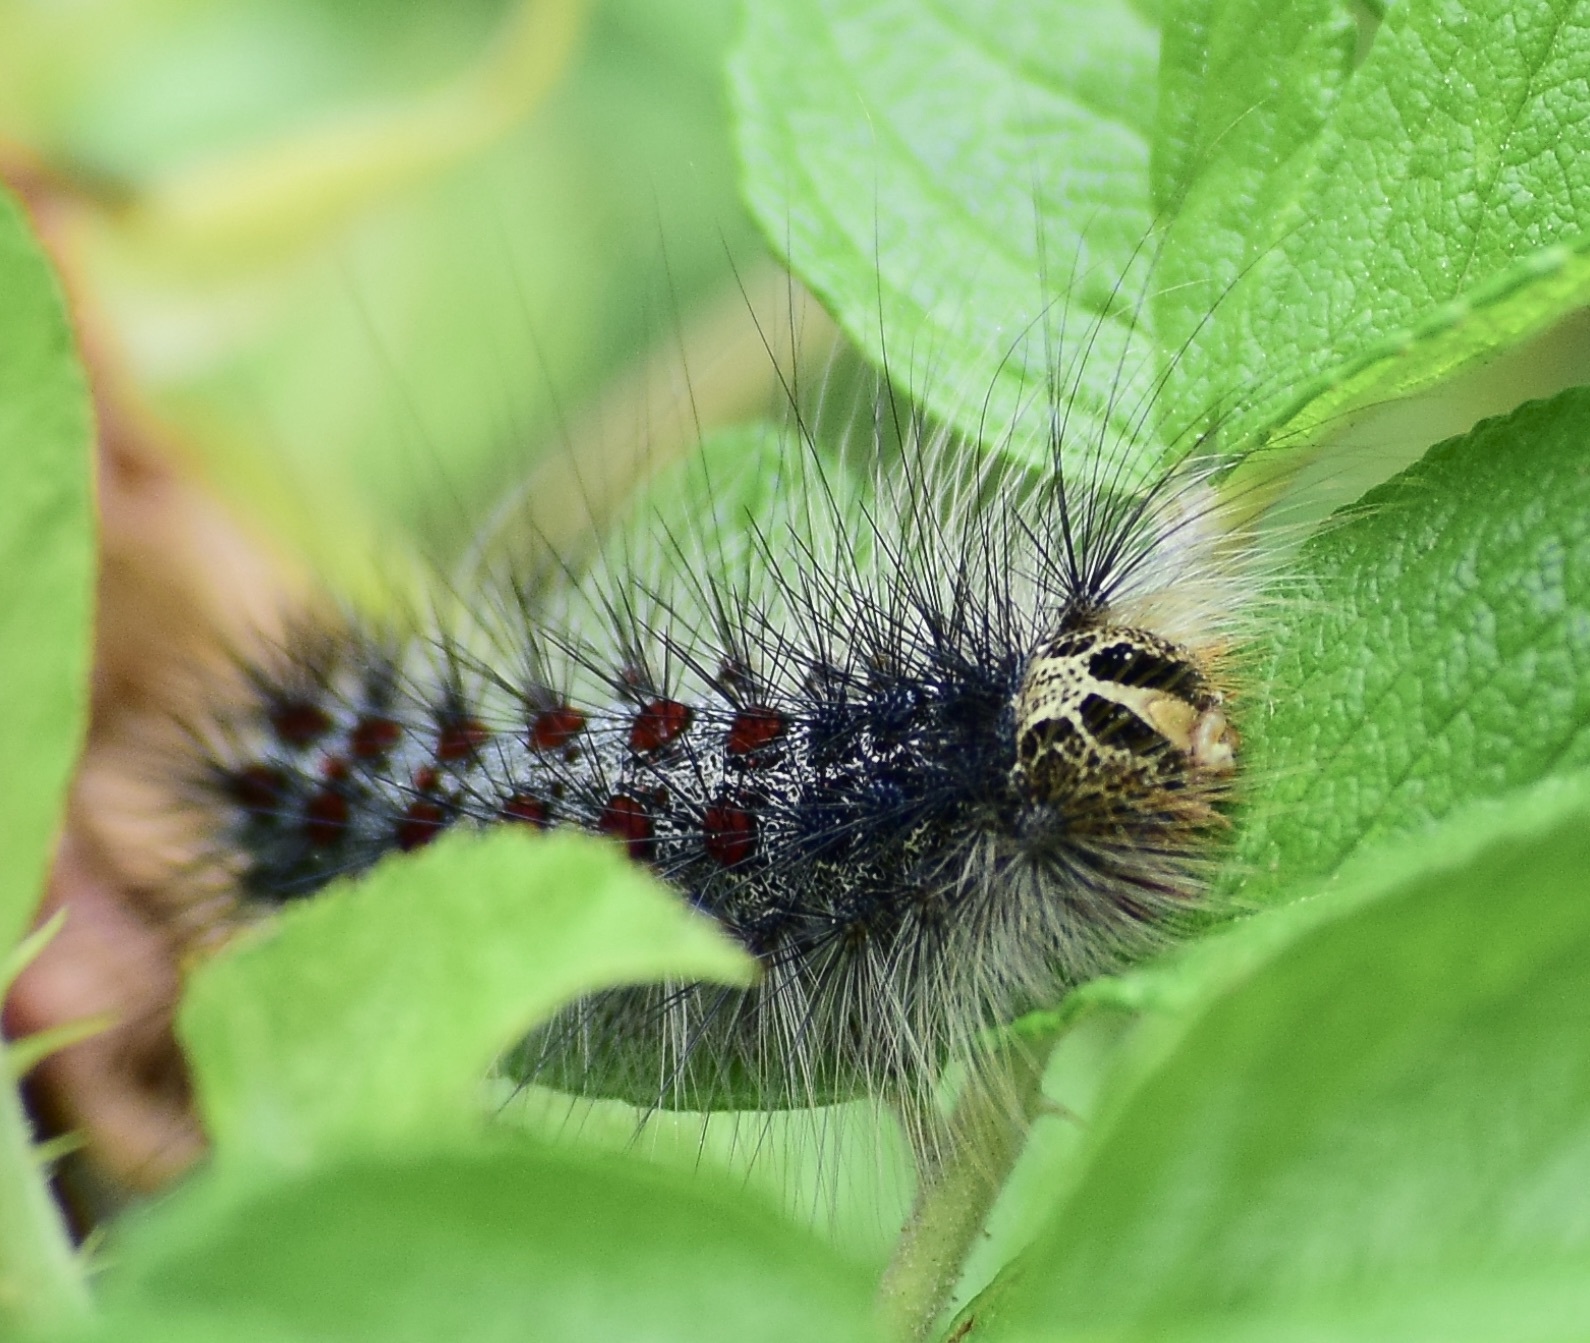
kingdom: Animalia
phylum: Arthropoda
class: Insecta
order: Lepidoptera
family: Erebidae
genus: Lymantria
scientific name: Lymantria dispar
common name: Gypsy moth
